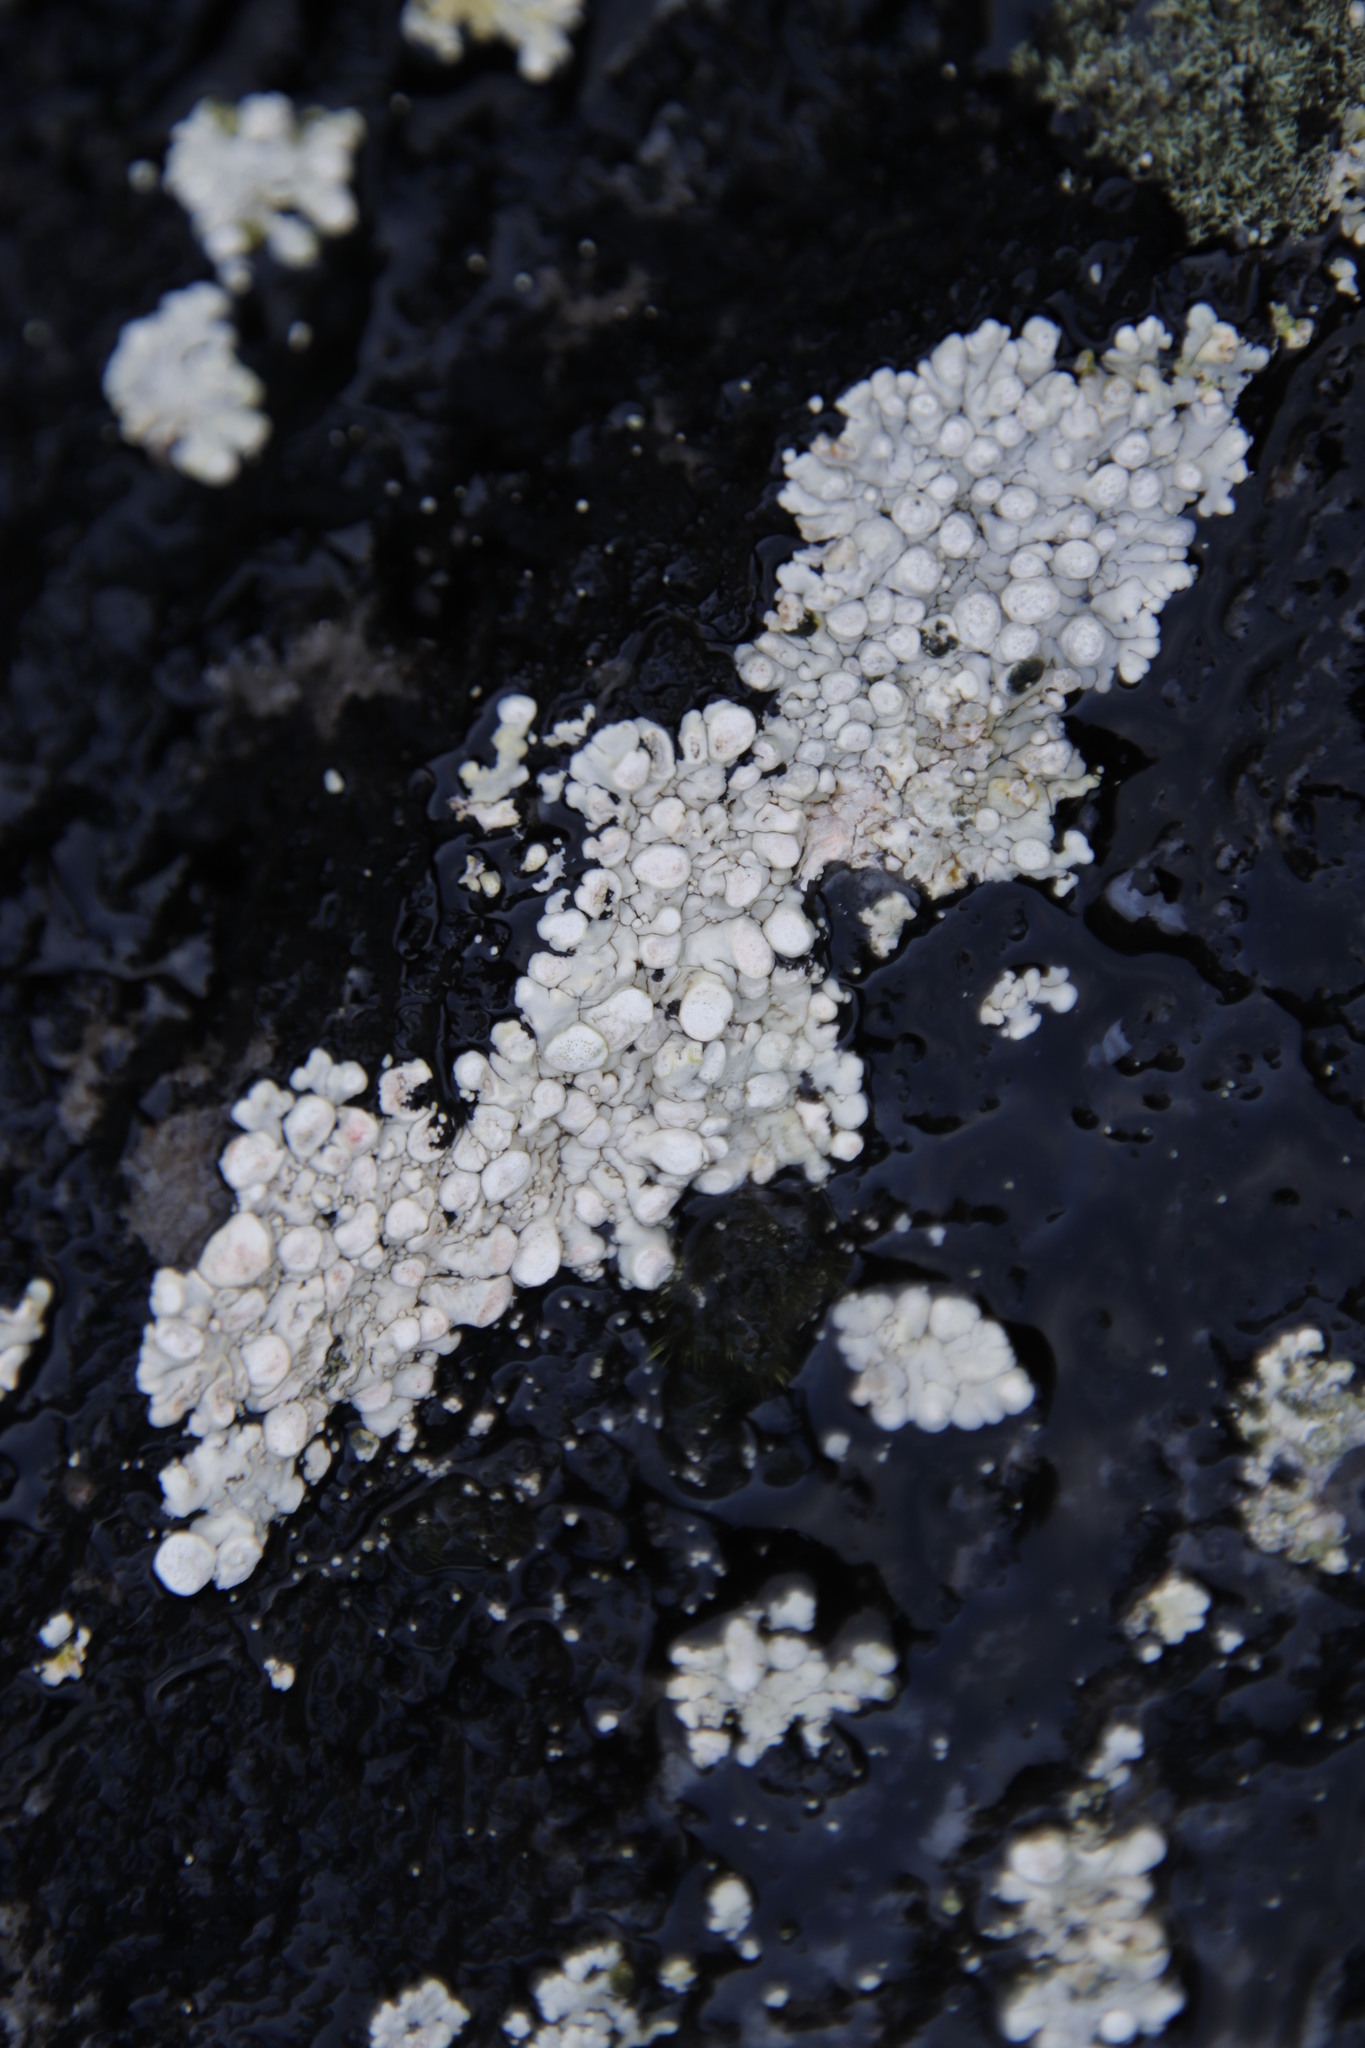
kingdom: Fungi
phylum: Ascomycota
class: Lecanoromycetes
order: Pertusariales
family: Icmadophilaceae
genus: Siphula
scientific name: Siphula verrucigera
